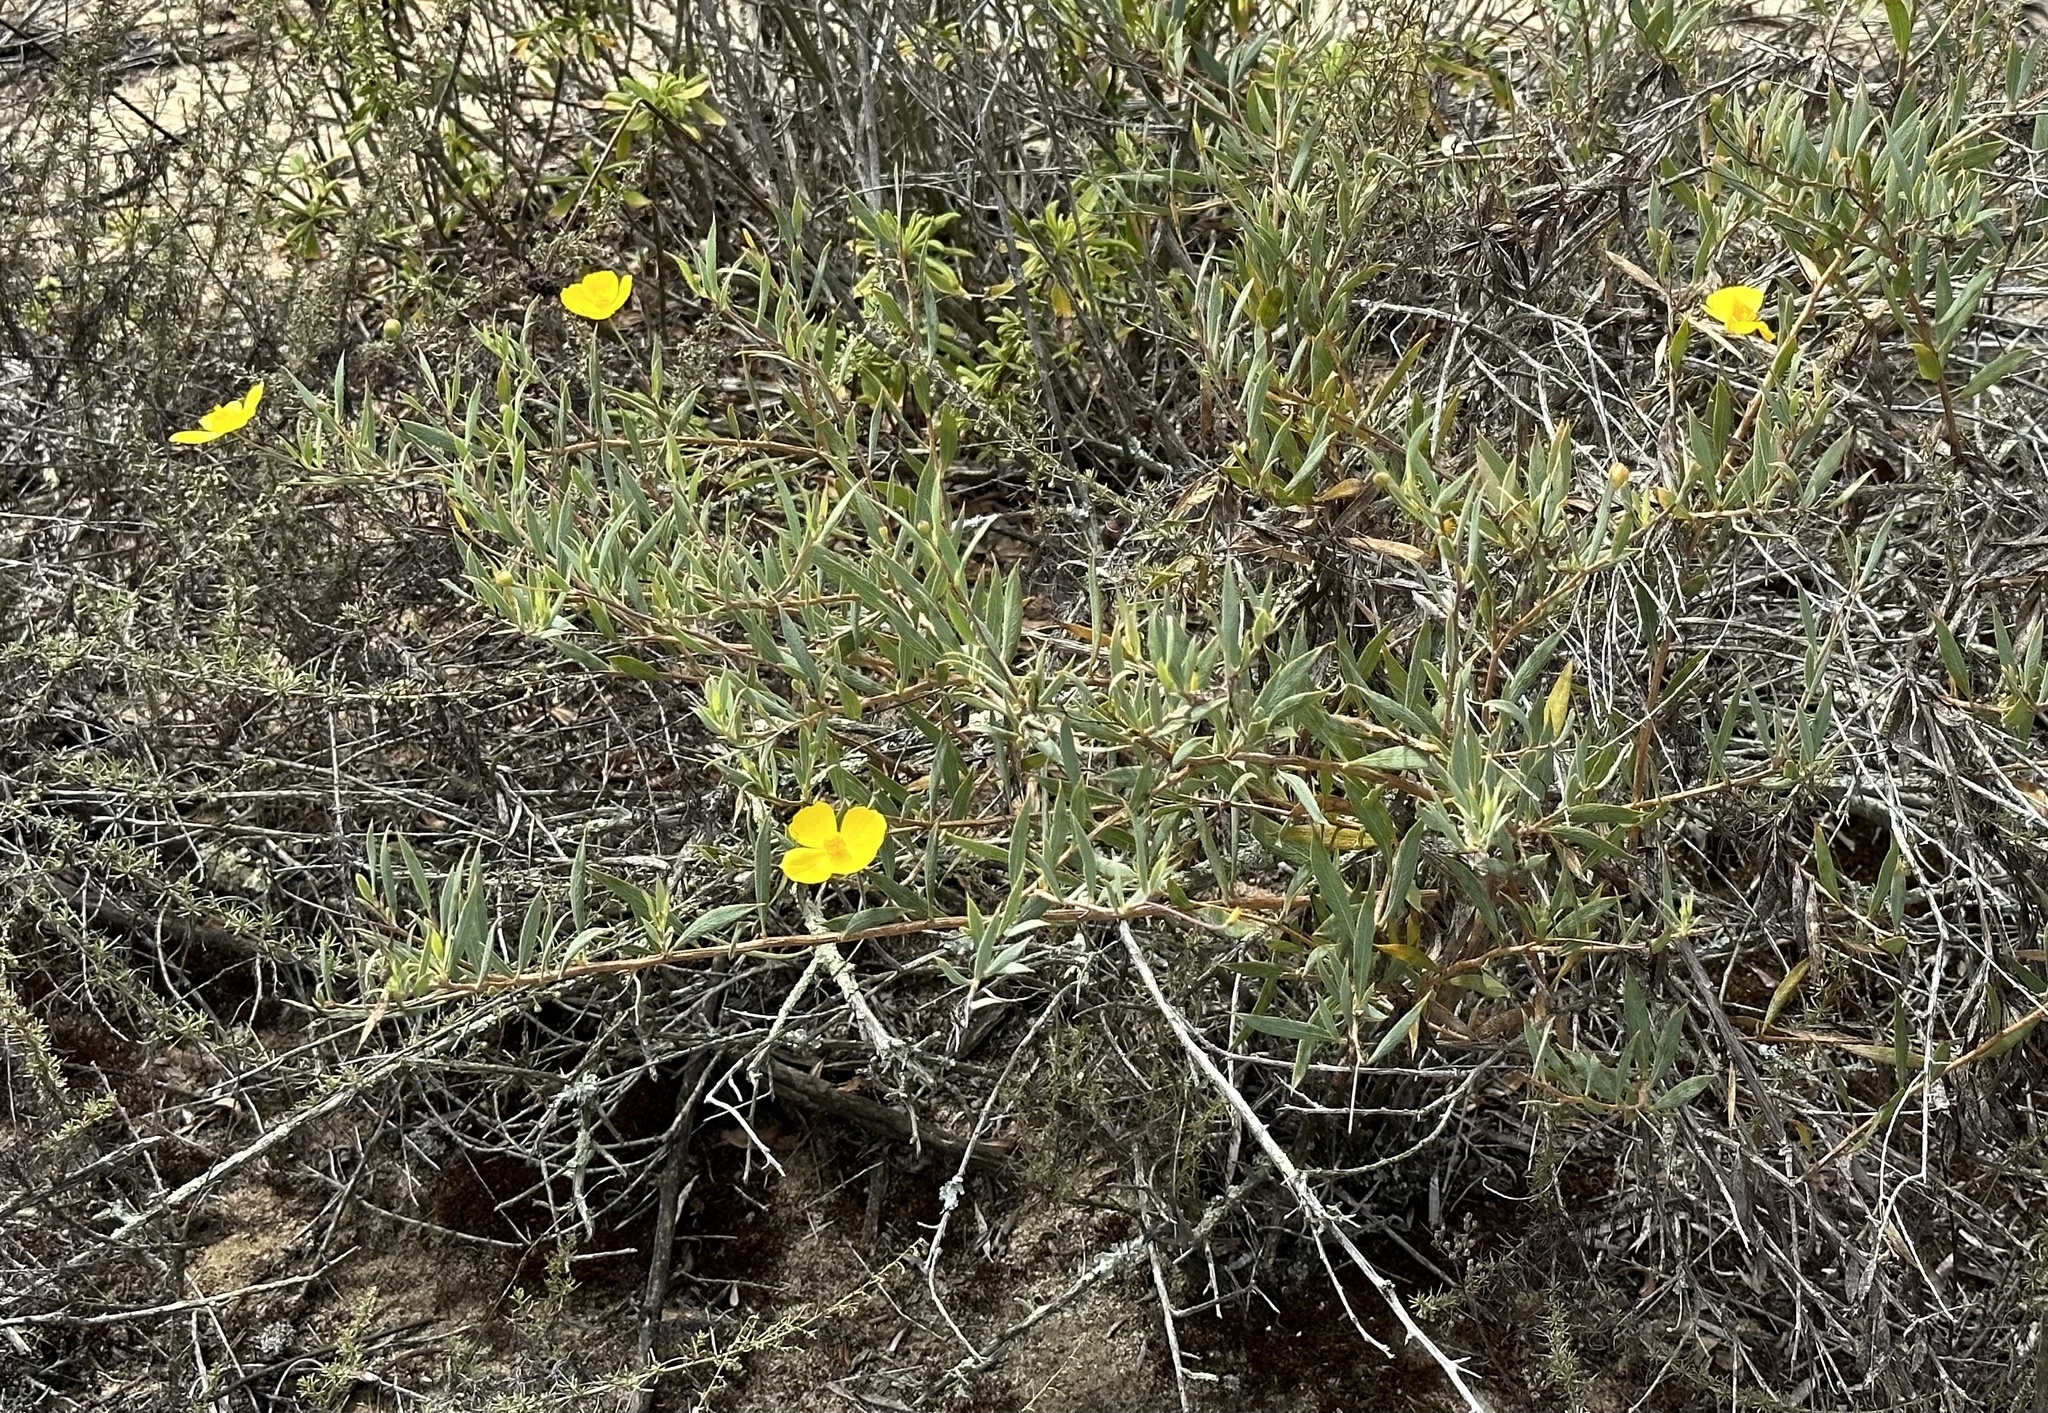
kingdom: Plantae
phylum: Tracheophyta
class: Magnoliopsida
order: Ranunculales
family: Papaveraceae
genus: Dendromecon
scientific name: Dendromecon rigida
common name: Tree poppy
